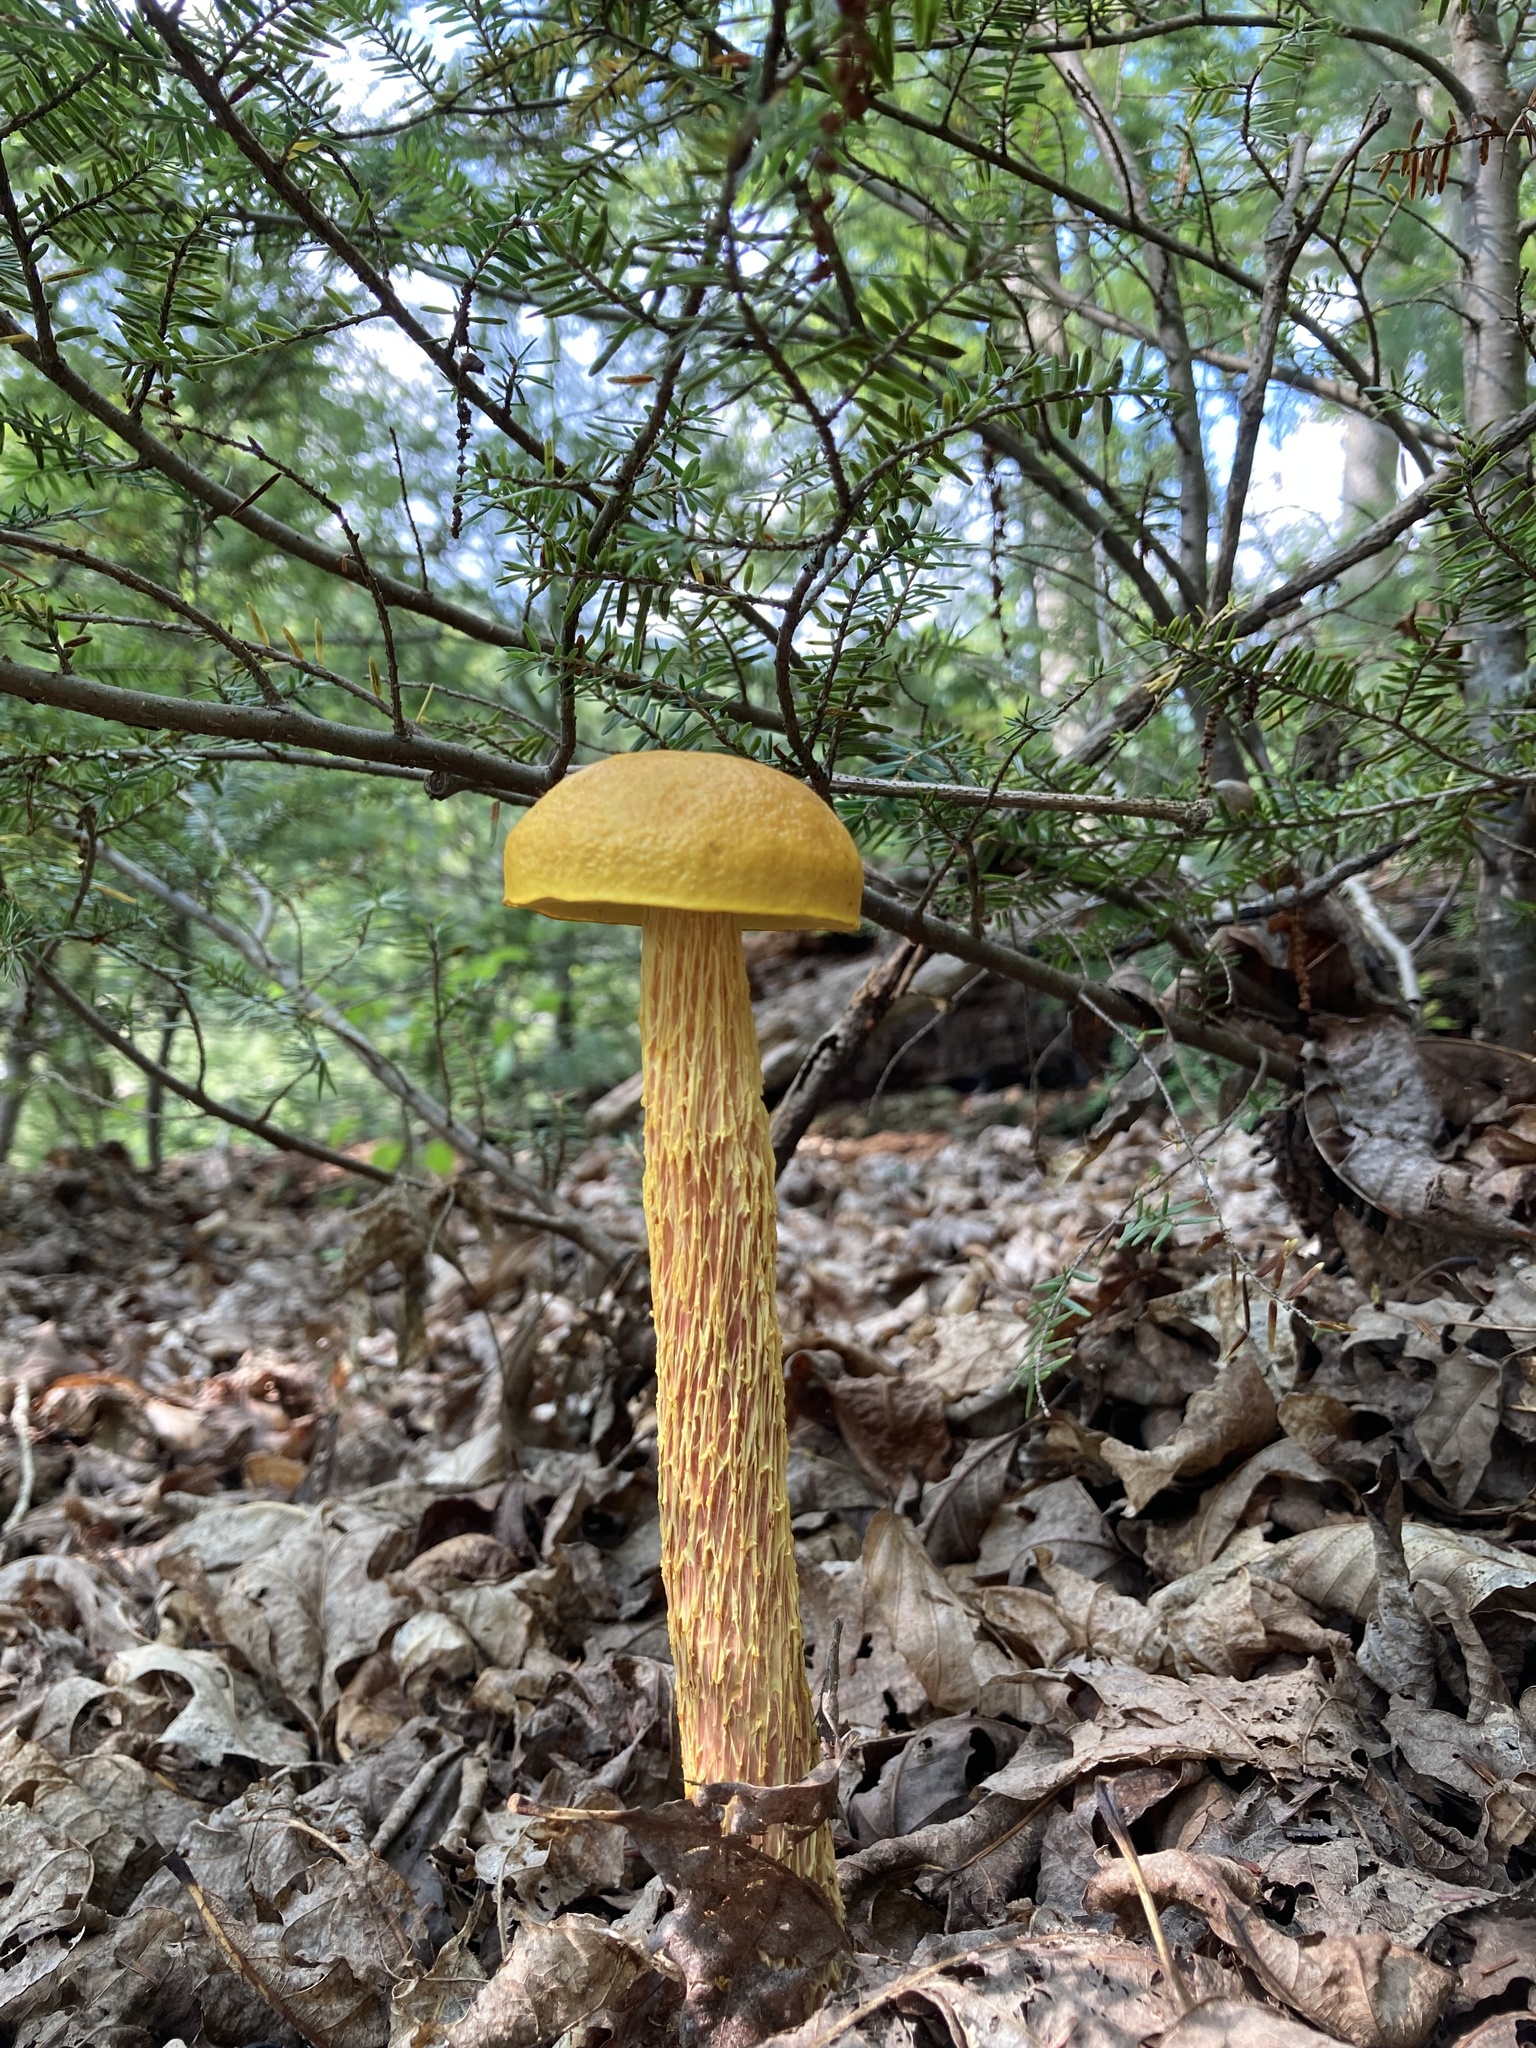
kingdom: Fungi
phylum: Basidiomycota
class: Agaricomycetes
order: Boletales
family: Boletaceae
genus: Aureoboletus
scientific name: Aureoboletus betula
